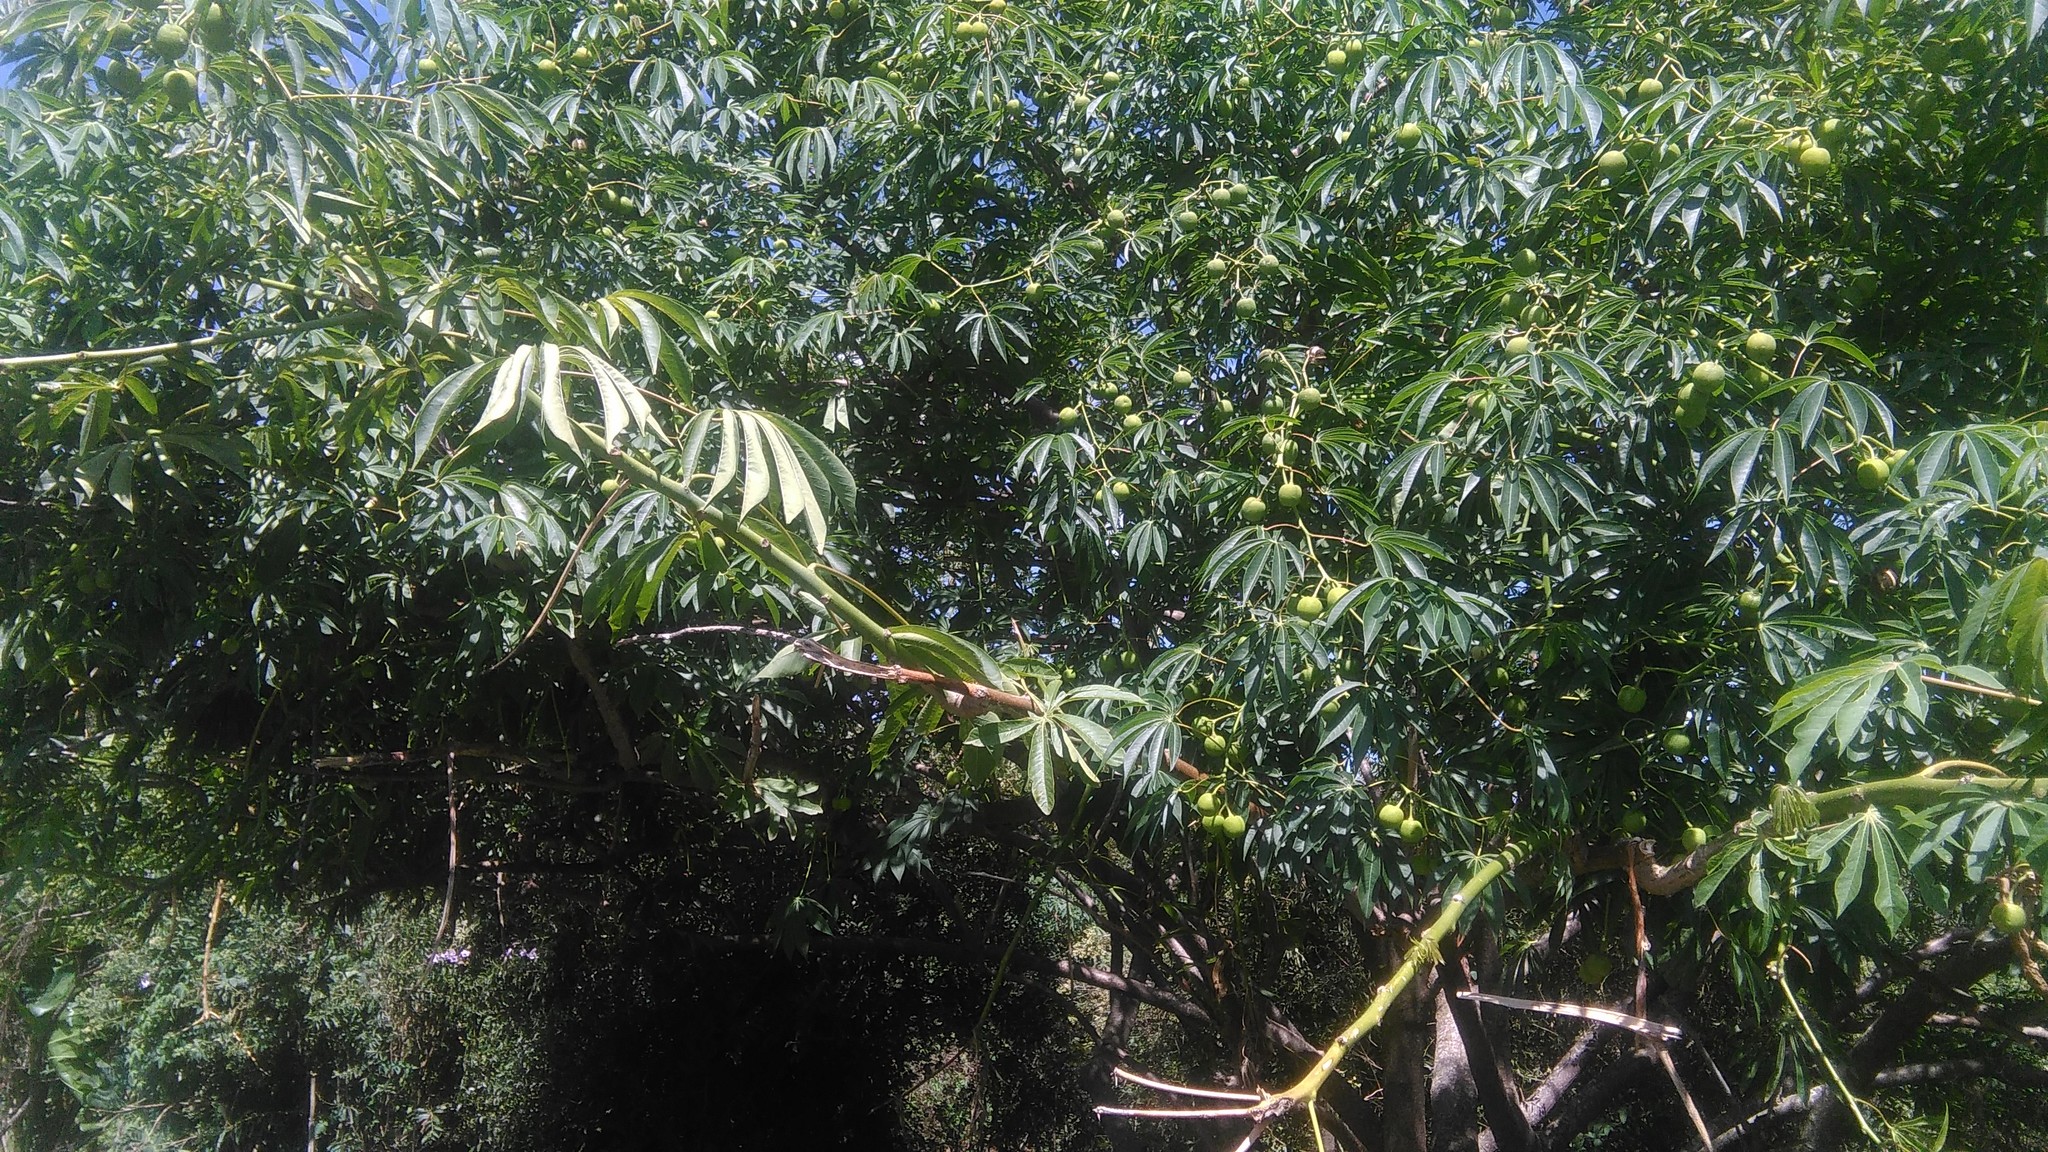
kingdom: Plantae
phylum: Tracheophyta
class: Magnoliopsida
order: Malpighiales
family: Euphorbiaceae
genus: Manihot
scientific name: Manihot grahamii
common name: Graham's manihot
